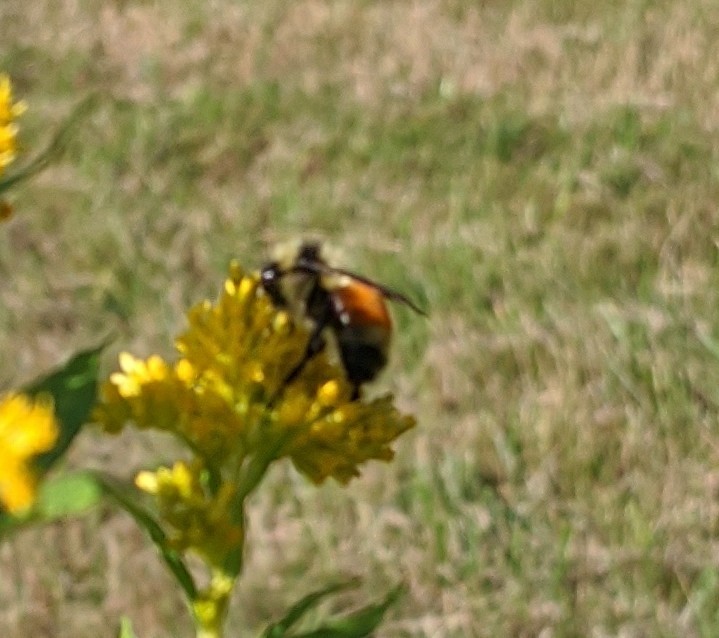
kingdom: Animalia
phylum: Arthropoda
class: Insecta
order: Hymenoptera
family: Apidae
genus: Bombus
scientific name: Bombus ternarius
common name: Tri-colored bumble bee
